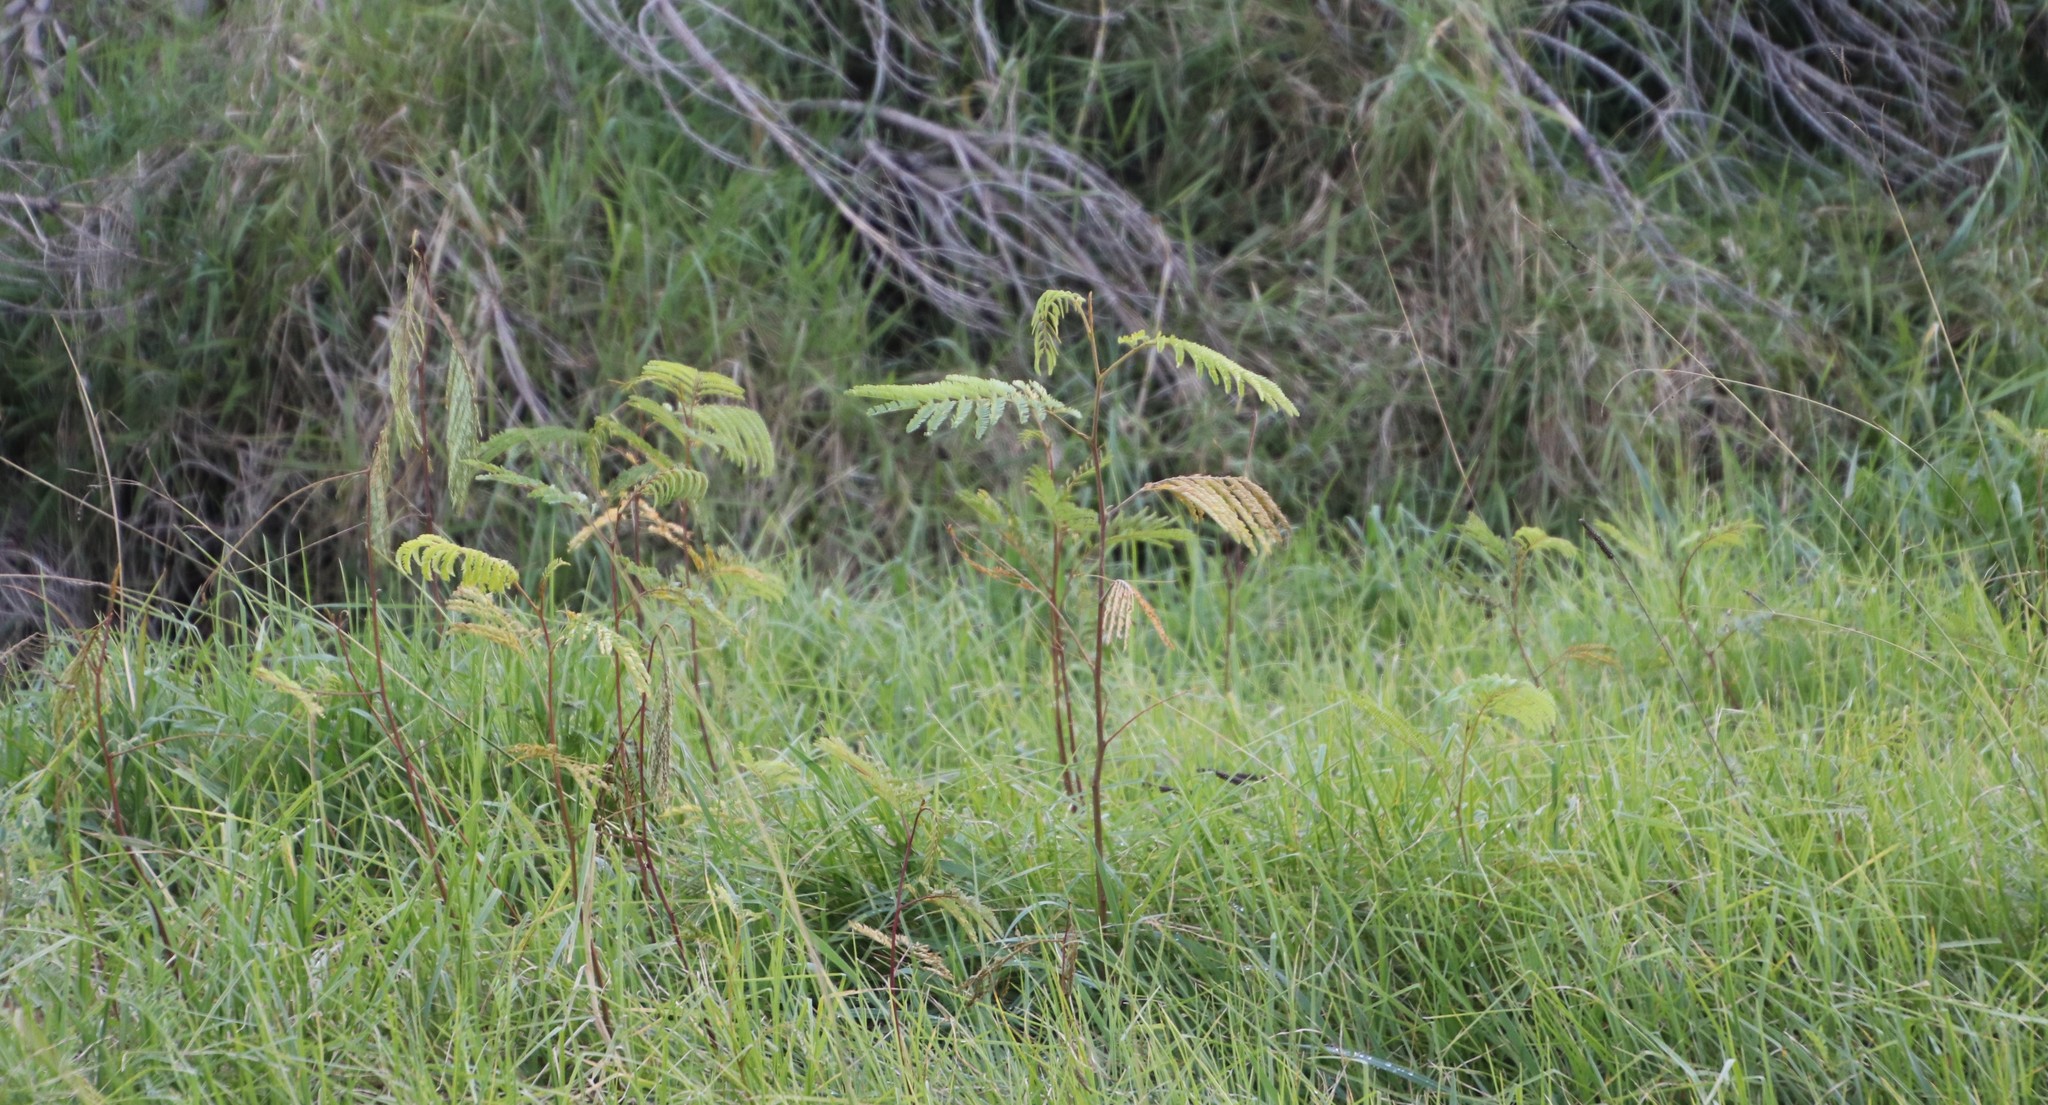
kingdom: Plantae
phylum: Tracheophyta
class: Magnoliopsida
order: Fabales
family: Fabaceae
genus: Paraserianthes
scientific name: Paraserianthes lophantha
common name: Plume albizia
